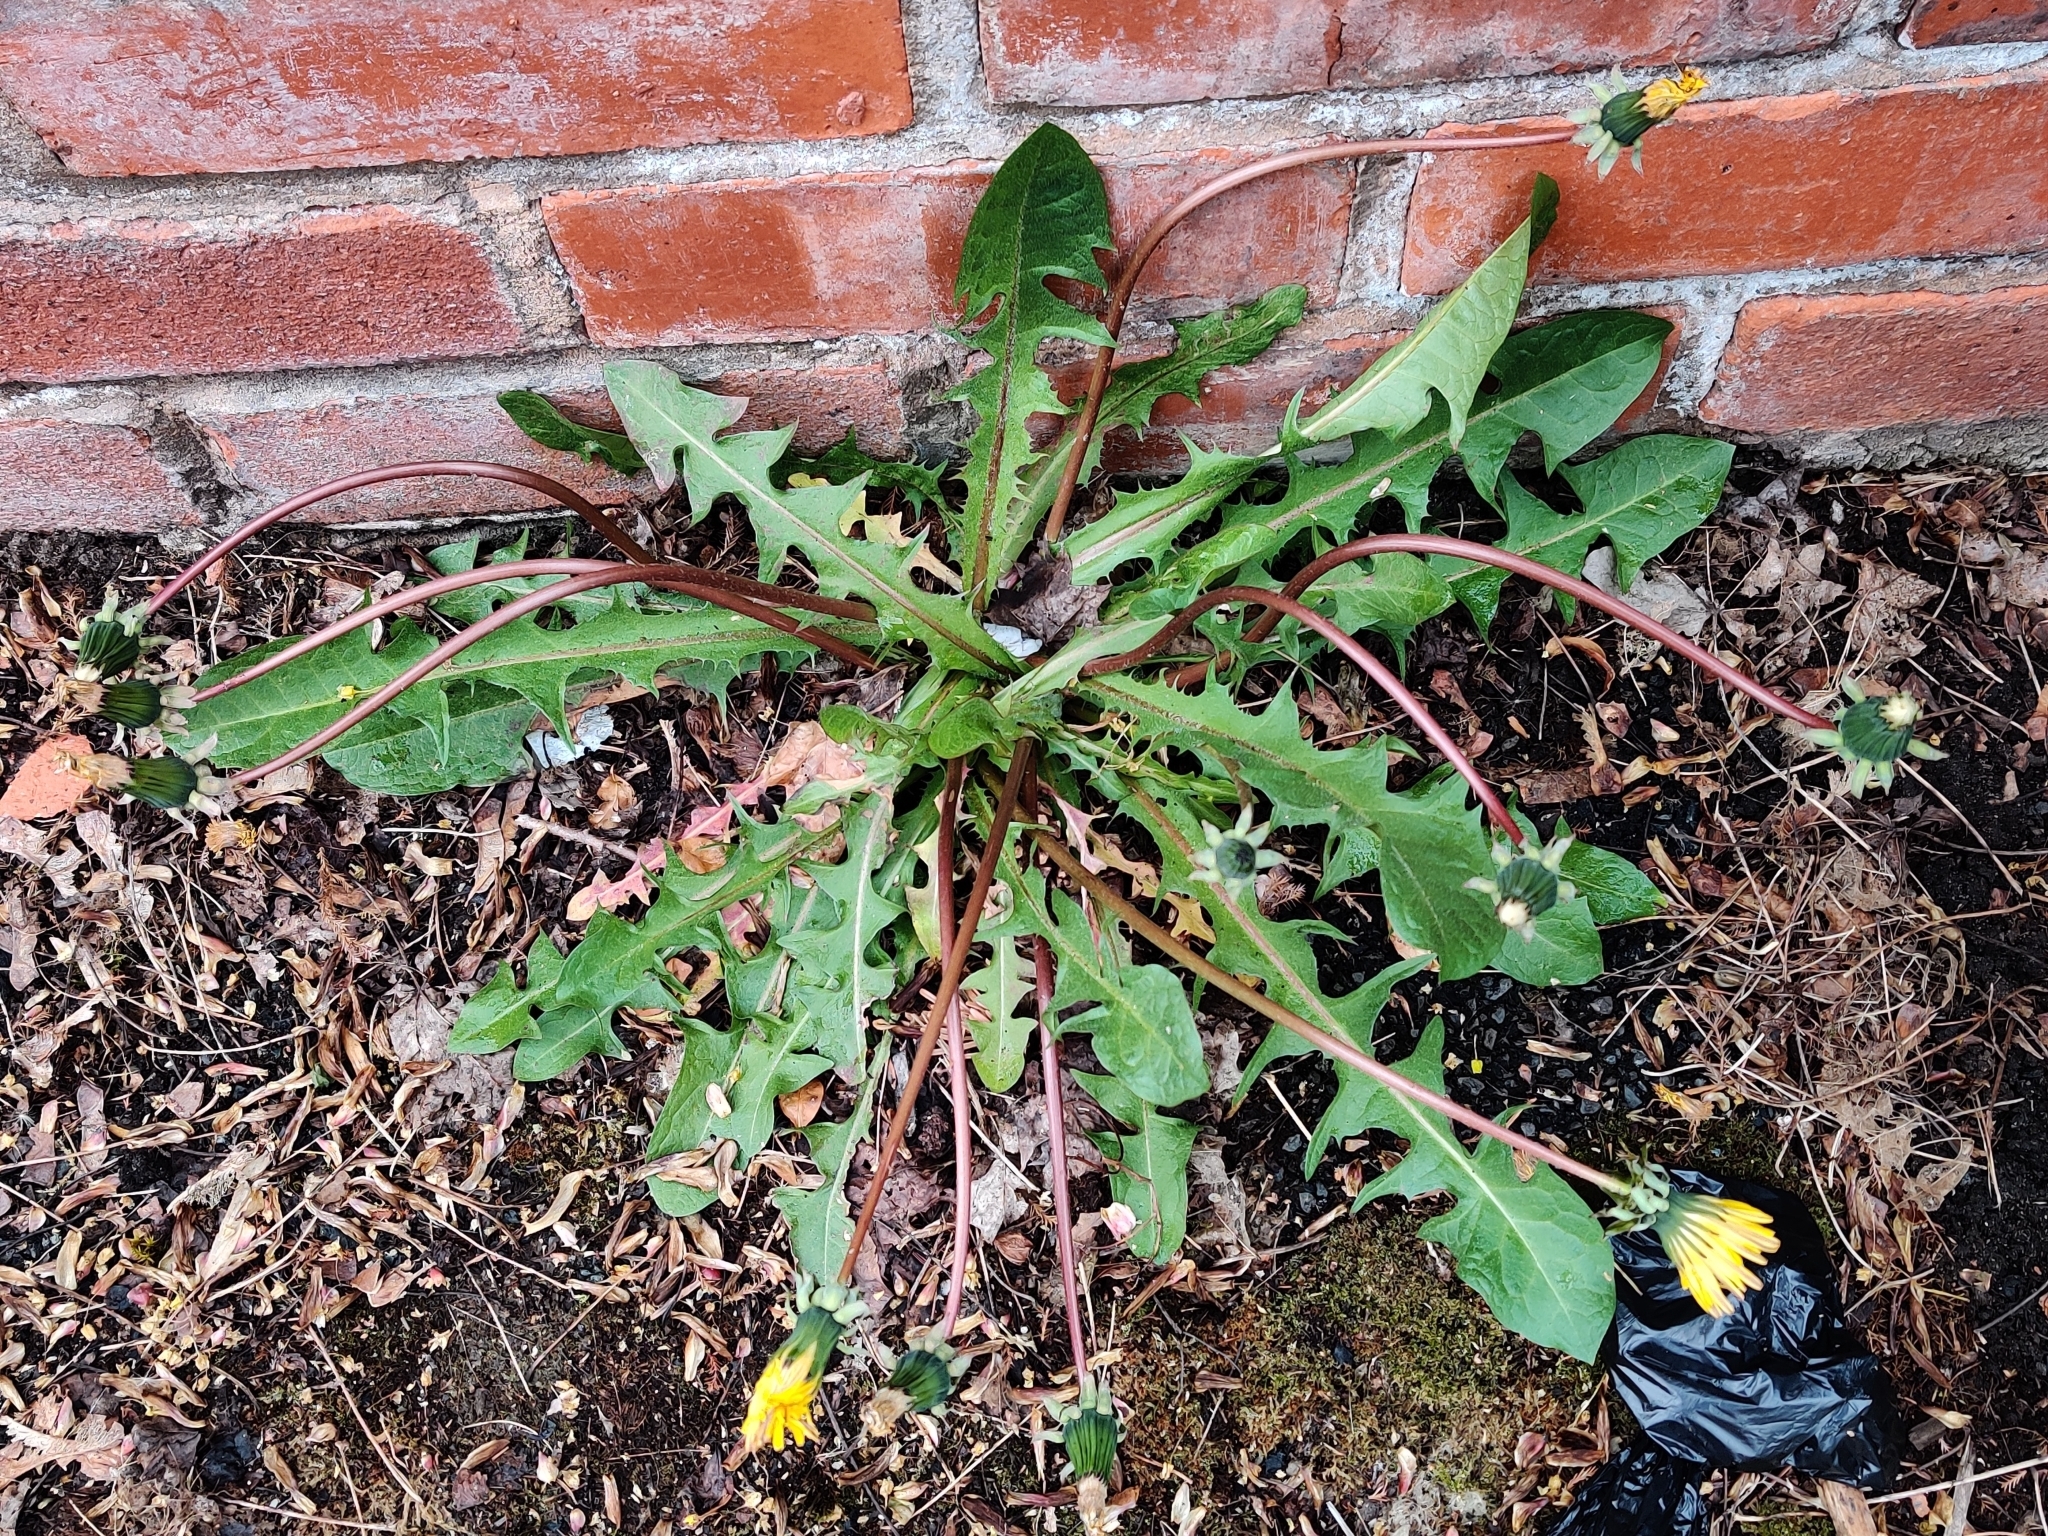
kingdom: Plantae
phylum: Tracheophyta
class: Magnoliopsida
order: Asterales
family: Asteraceae
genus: Taraxacum
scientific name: Taraxacum officinale
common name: Common dandelion
